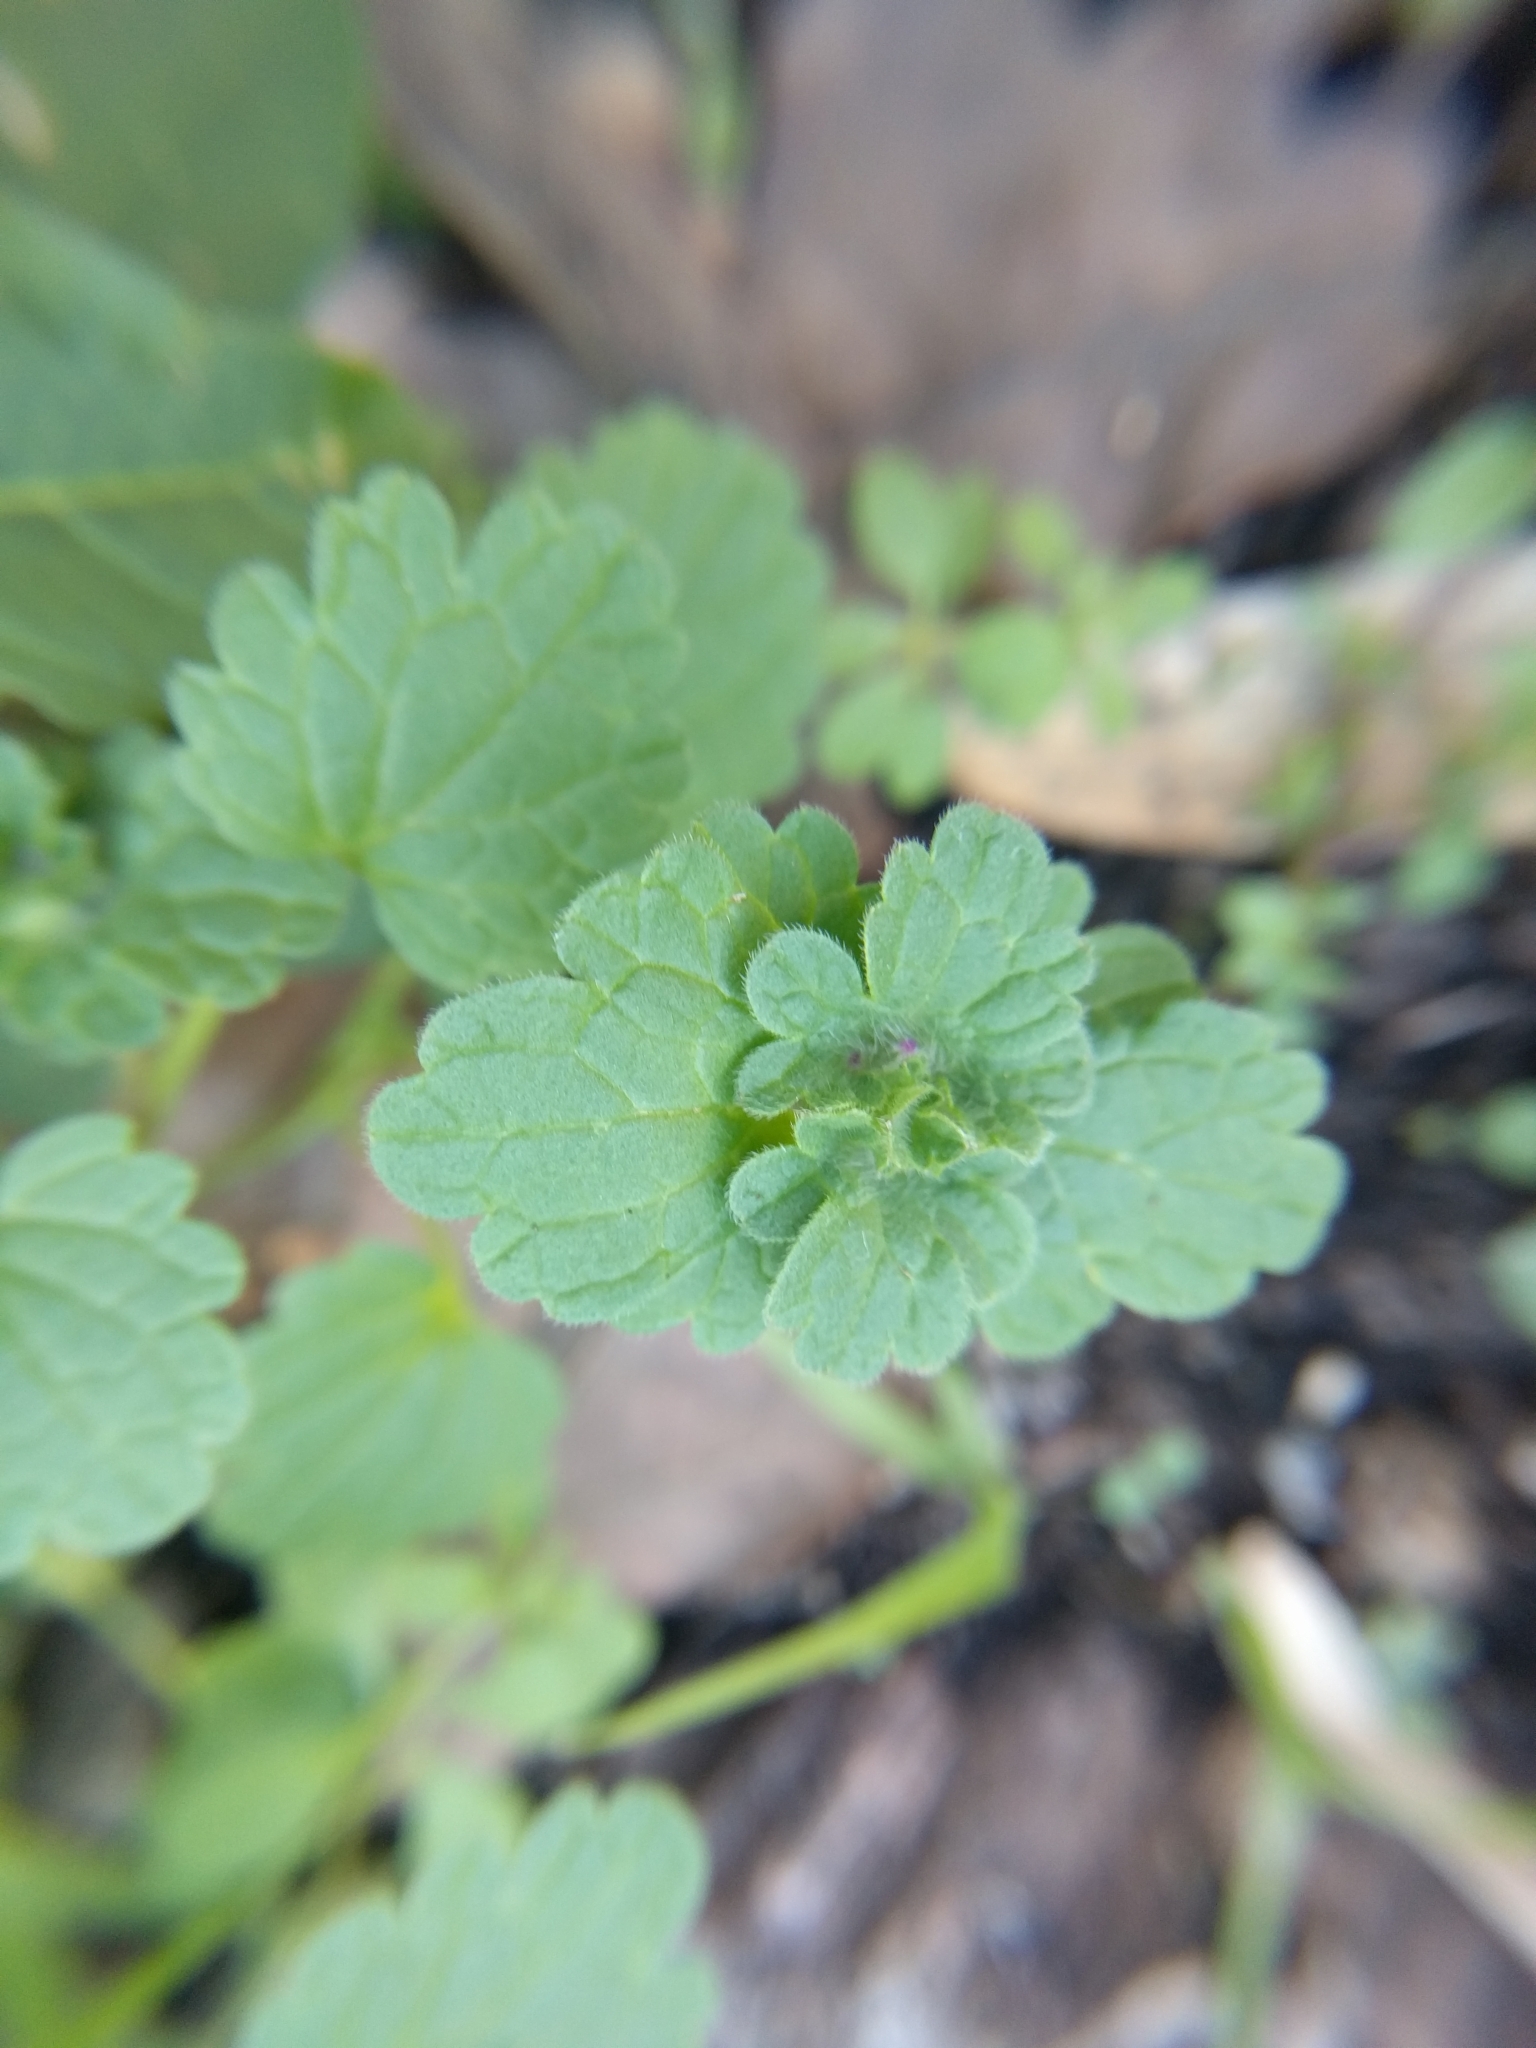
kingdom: Plantae
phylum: Tracheophyta
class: Magnoliopsida
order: Lamiales
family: Lamiaceae
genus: Lamium
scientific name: Lamium amplexicaule
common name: Henbit dead-nettle
